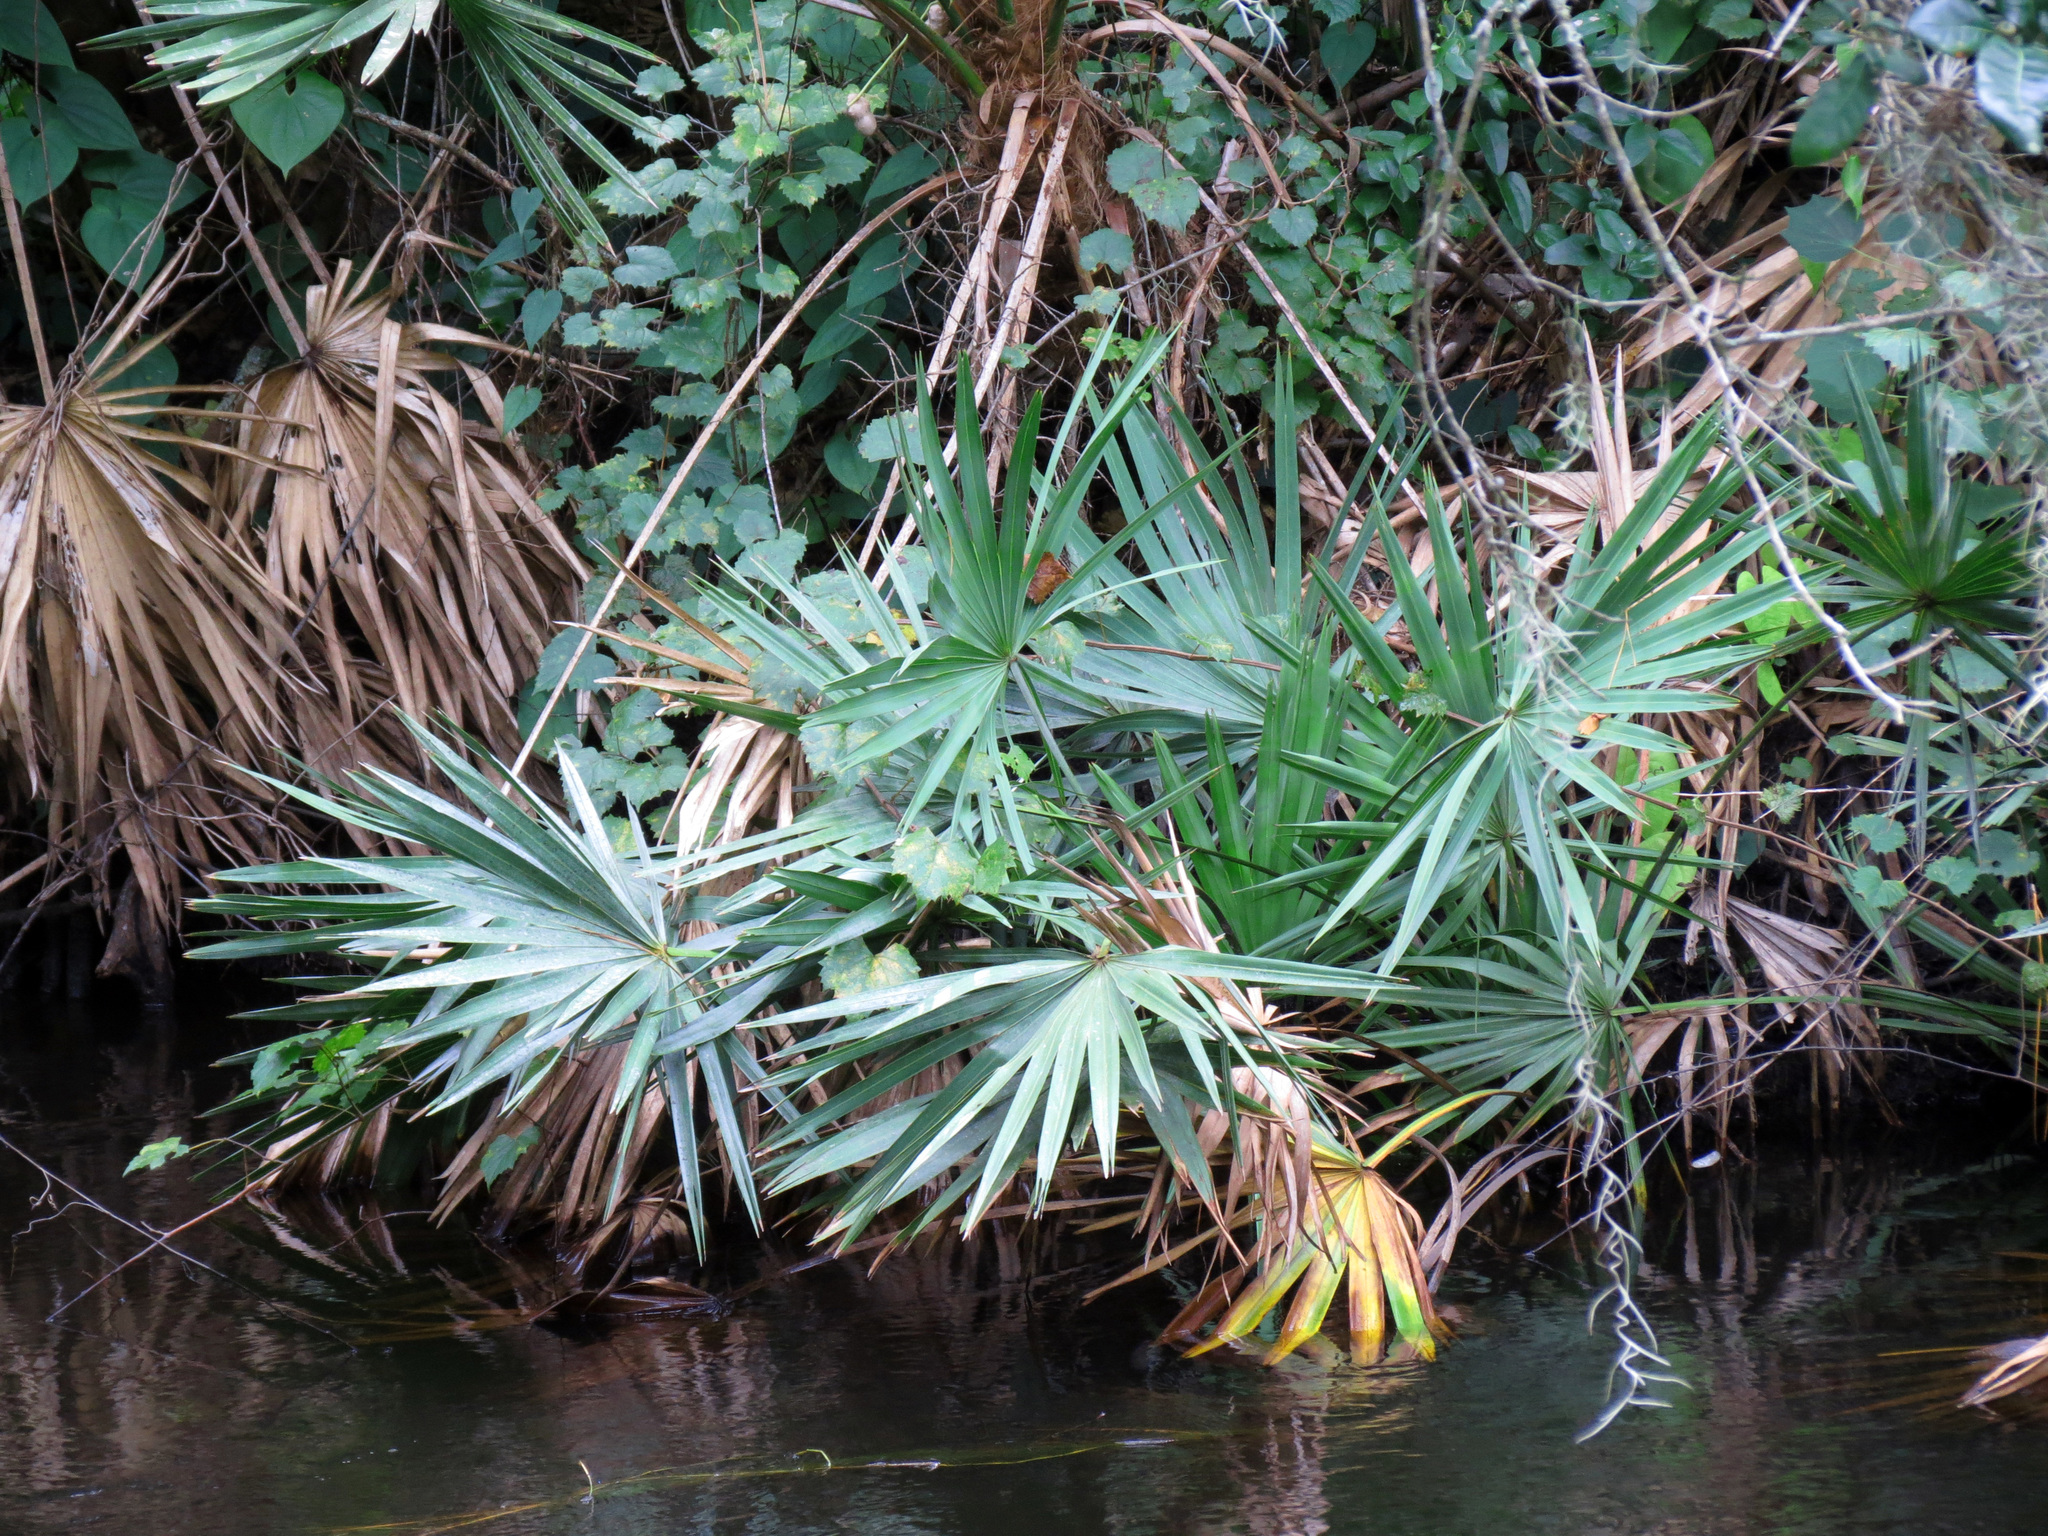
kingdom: Plantae
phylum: Tracheophyta
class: Liliopsida
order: Arecales
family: Arecaceae
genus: Serenoa
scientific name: Serenoa repens
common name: Saw-palmetto
